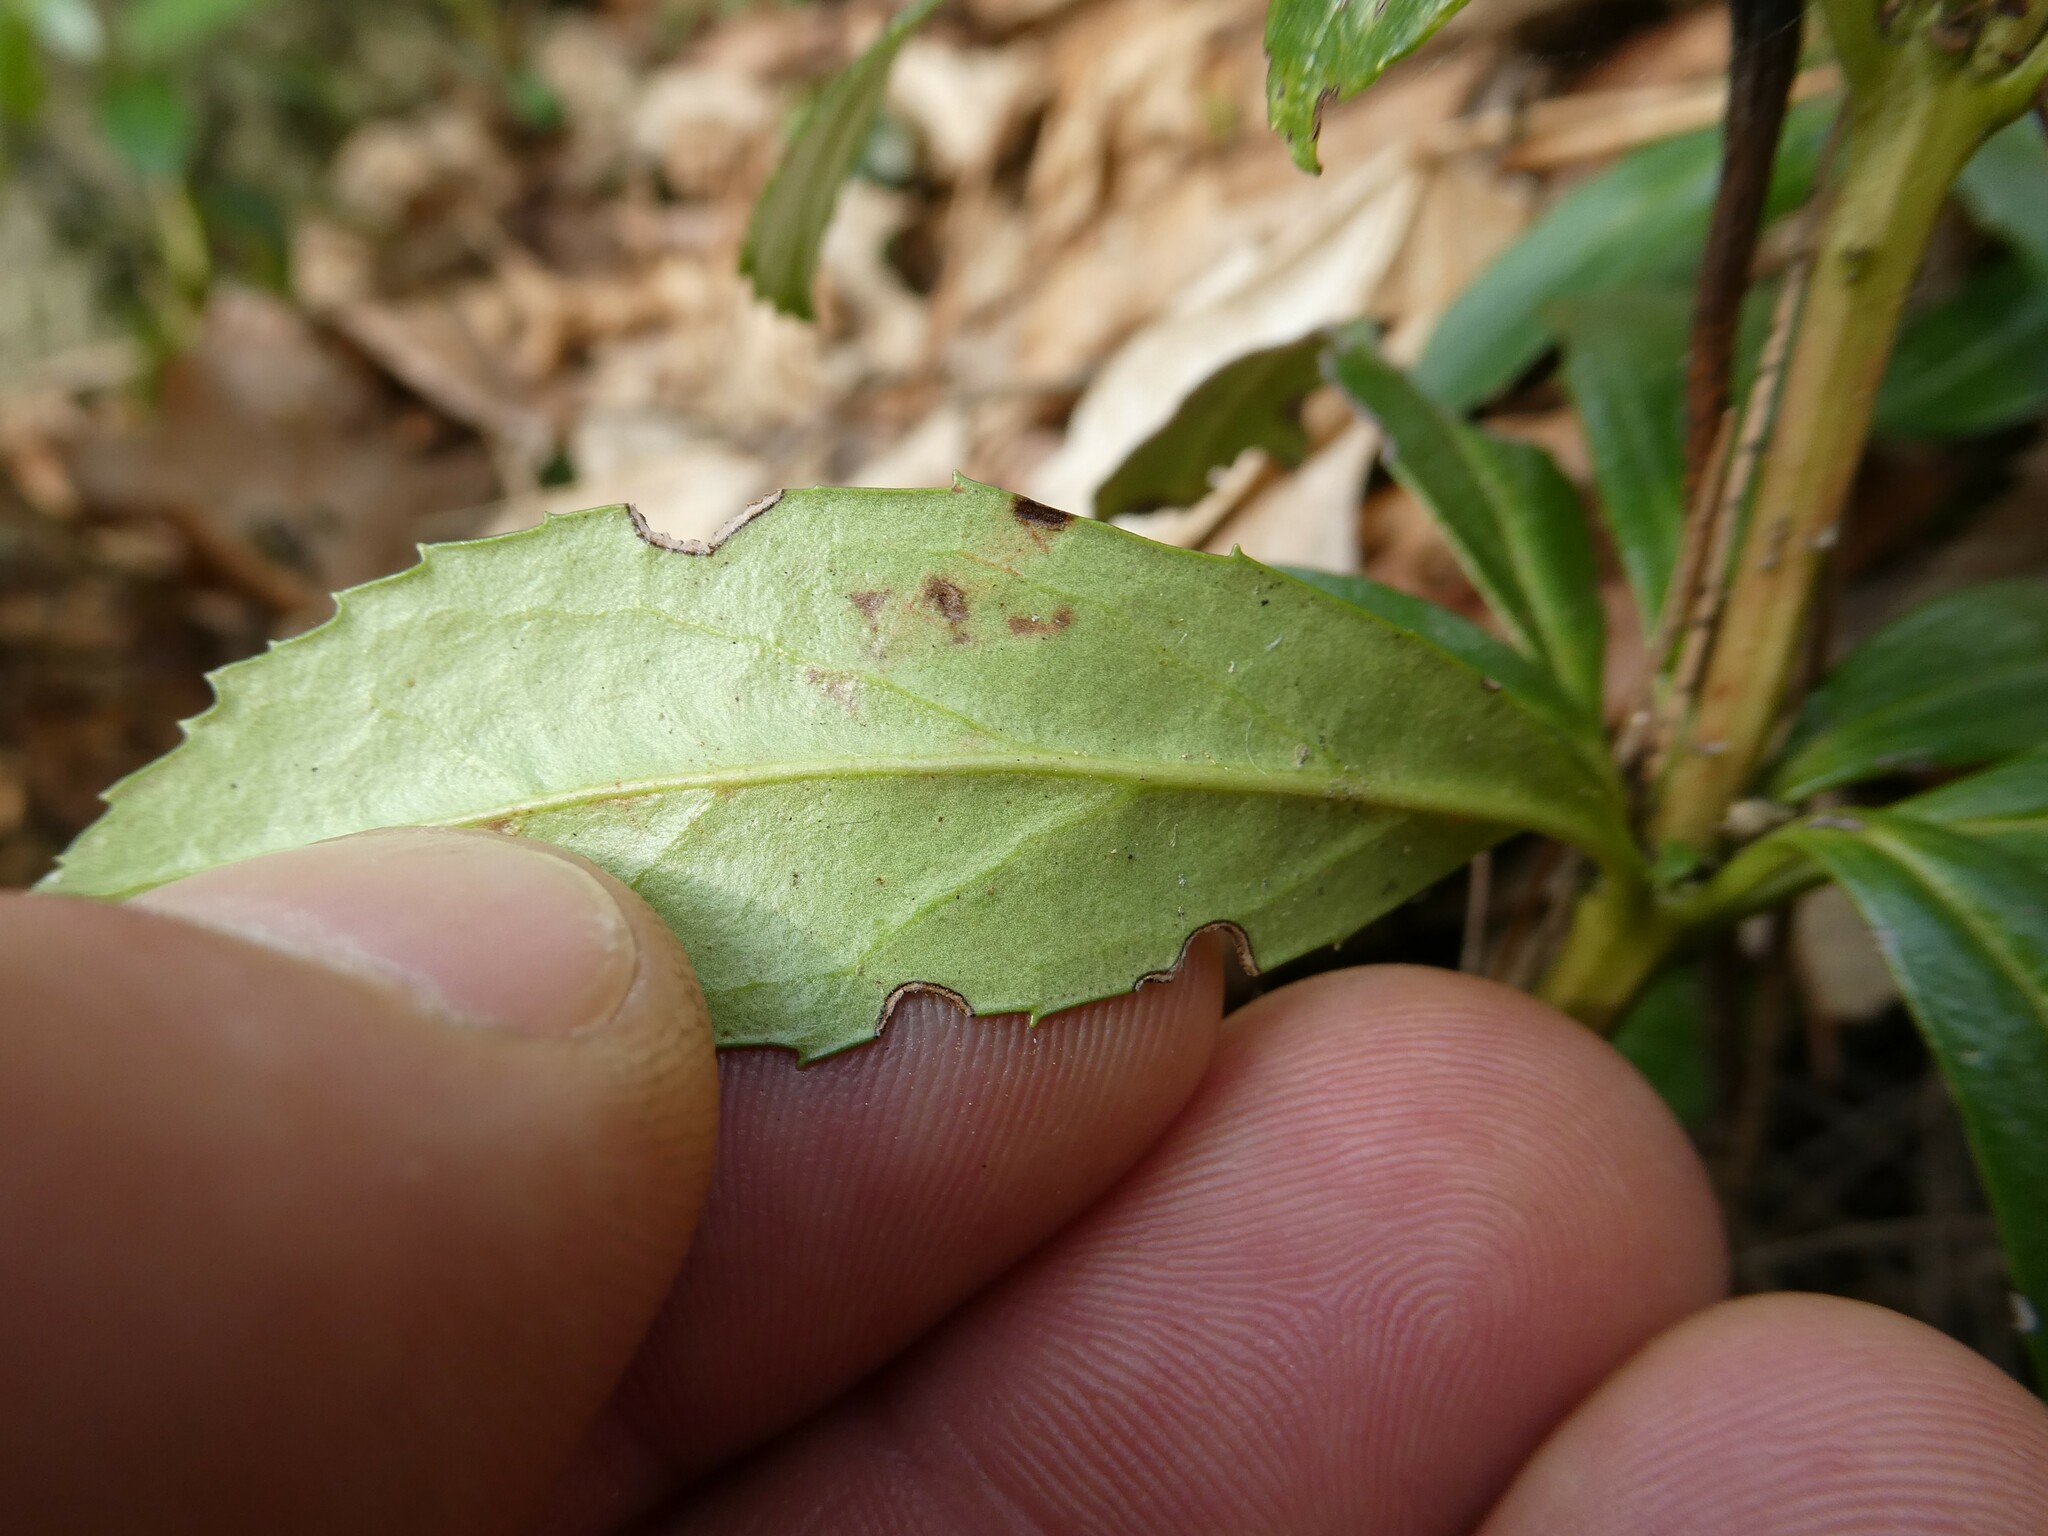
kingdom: Plantae
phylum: Tracheophyta
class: Magnoliopsida
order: Ericales
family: Ericaceae
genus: Chimaphila
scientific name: Chimaphila umbellata
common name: Pipsissewa
